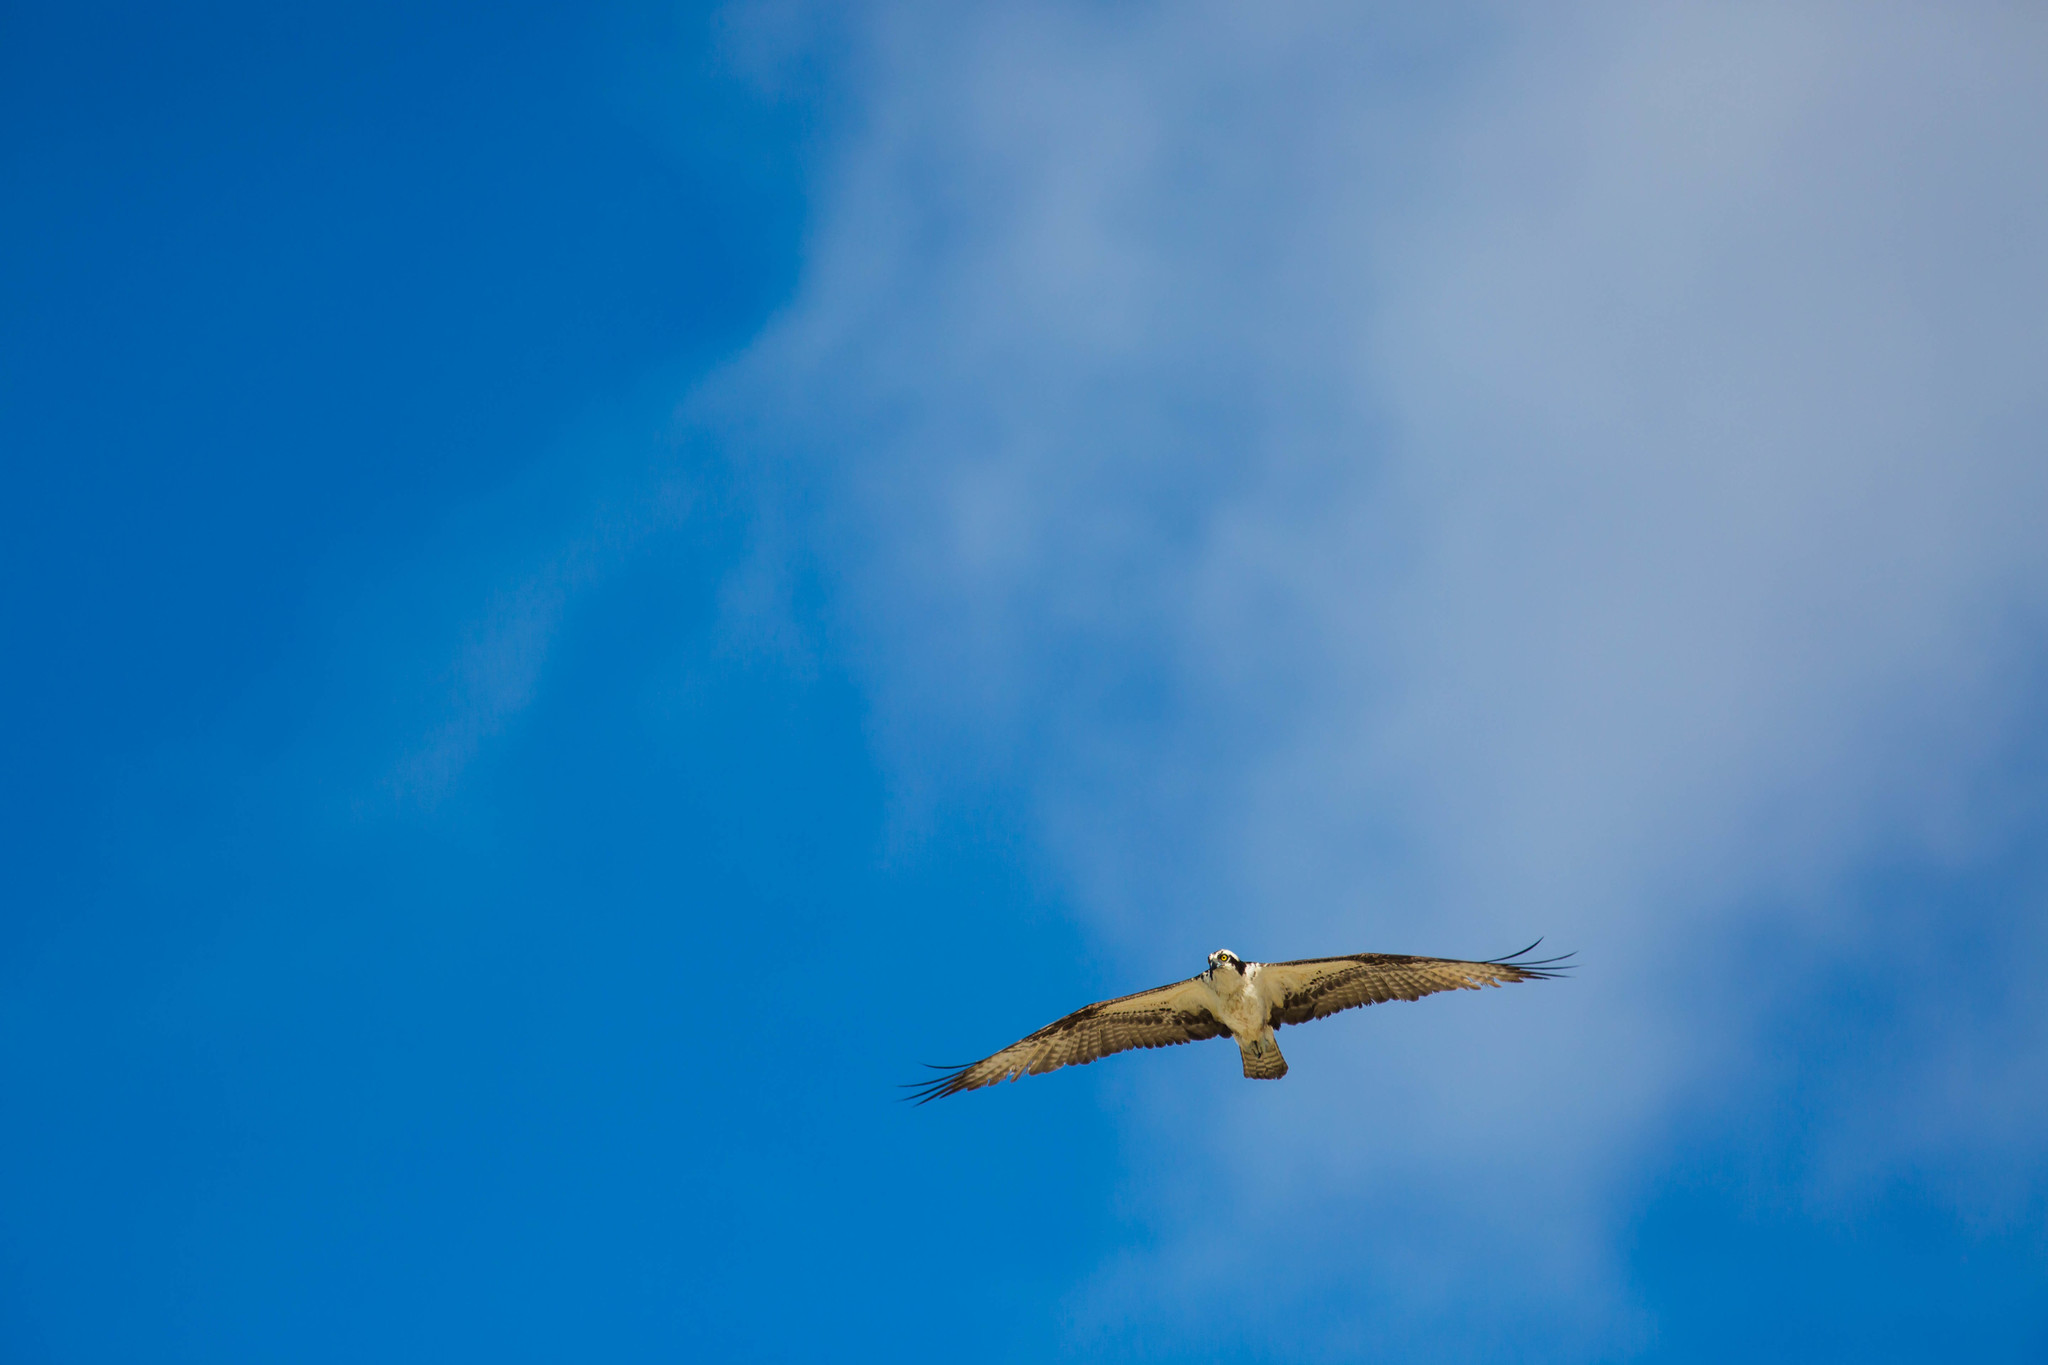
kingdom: Animalia
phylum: Chordata
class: Aves
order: Accipitriformes
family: Pandionidae
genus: Pandion
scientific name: Pandion haliaetus
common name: Osprey
